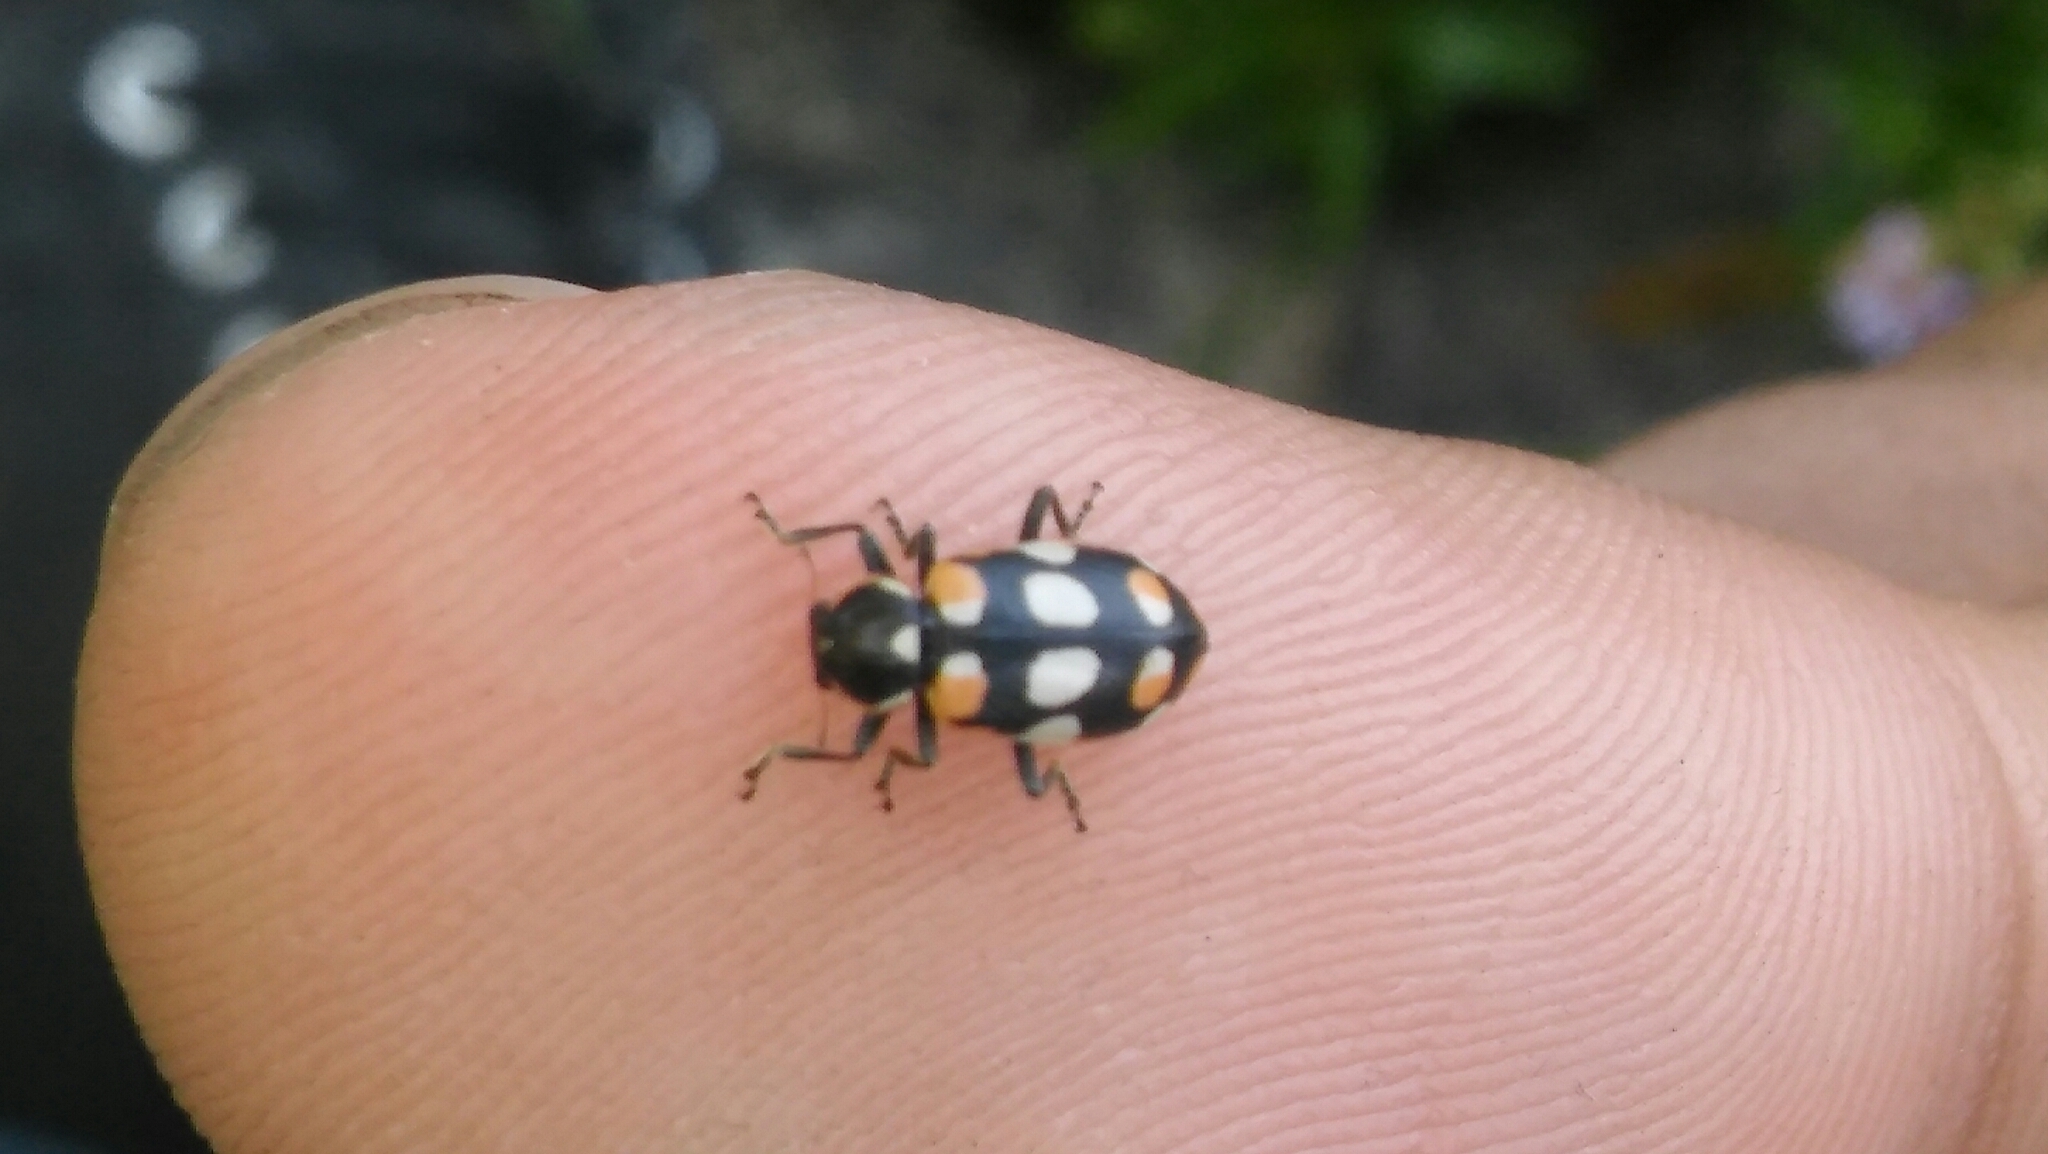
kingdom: Animalia
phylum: Arthropoda
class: Insecta
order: Coleoptera
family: Coccinellidae
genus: Eriopis
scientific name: Eriopis connexa
